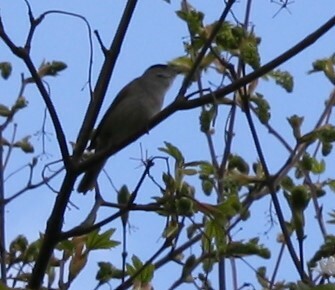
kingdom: Animalia
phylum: Chordata
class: Aves
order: Passeriformes
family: Sylviidae
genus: Sylvia
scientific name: Sylvia atricapilla
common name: Eurasian blackcap
